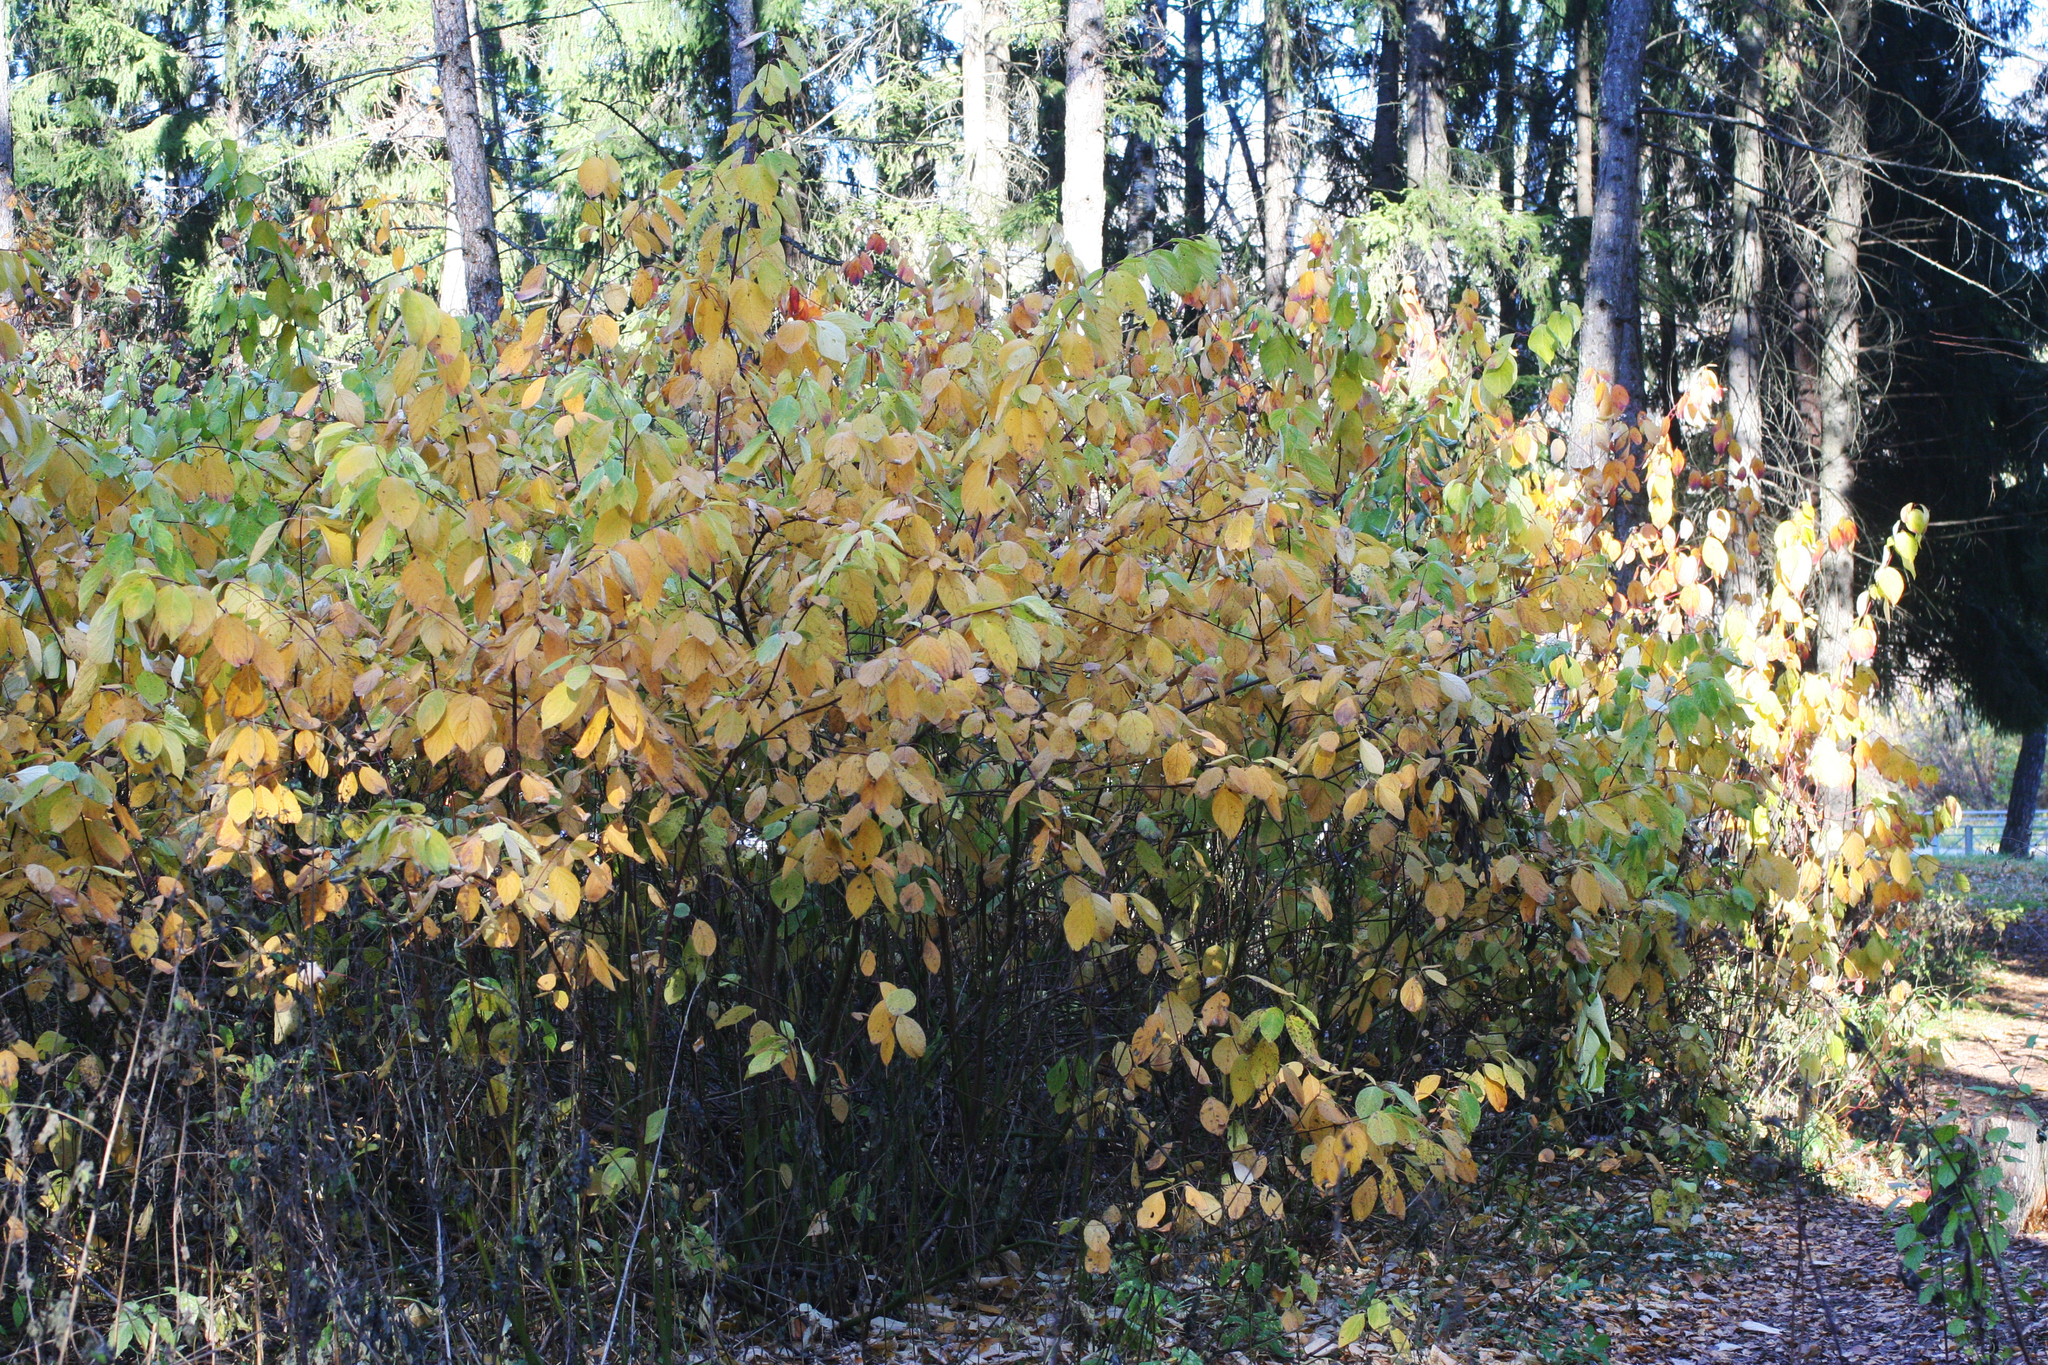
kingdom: Plantae
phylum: Tracheophyta
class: Magnoliopsida
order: Cornales
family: Cornaceae
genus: Cornus
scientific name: Cornus alba
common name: White dogwood
